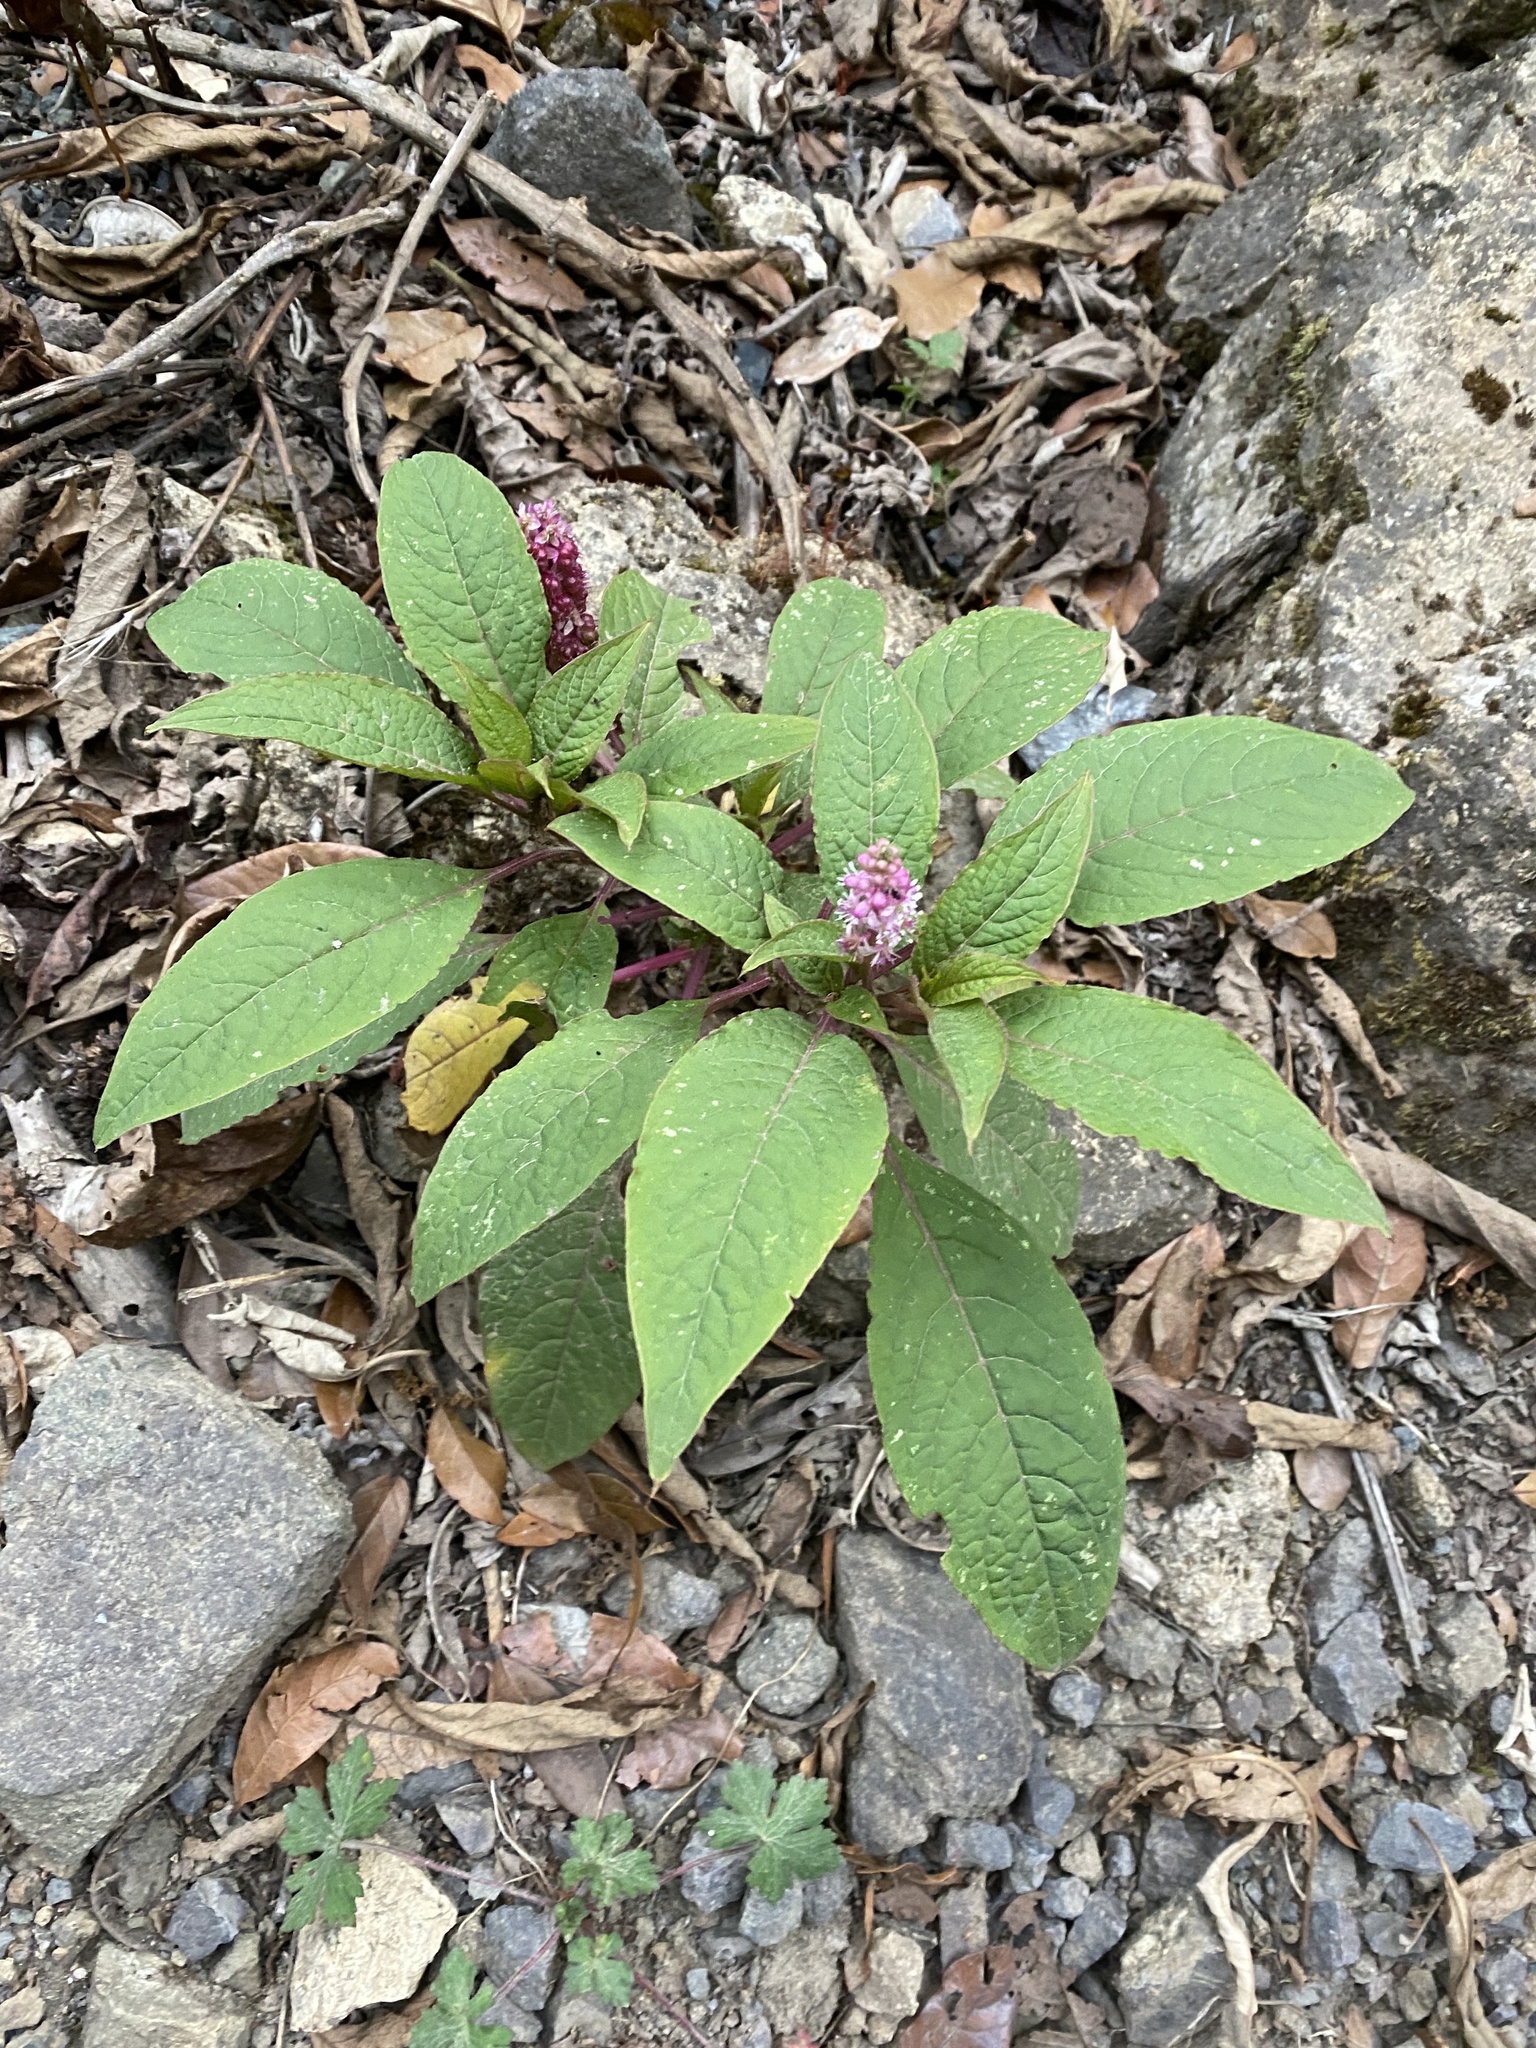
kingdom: Plantae
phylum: Tracheophyta
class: Magnoliopsida
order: Caryophyllales
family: Phytolaccaceae
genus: Phytolacca
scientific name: Phytolacca rugosa
